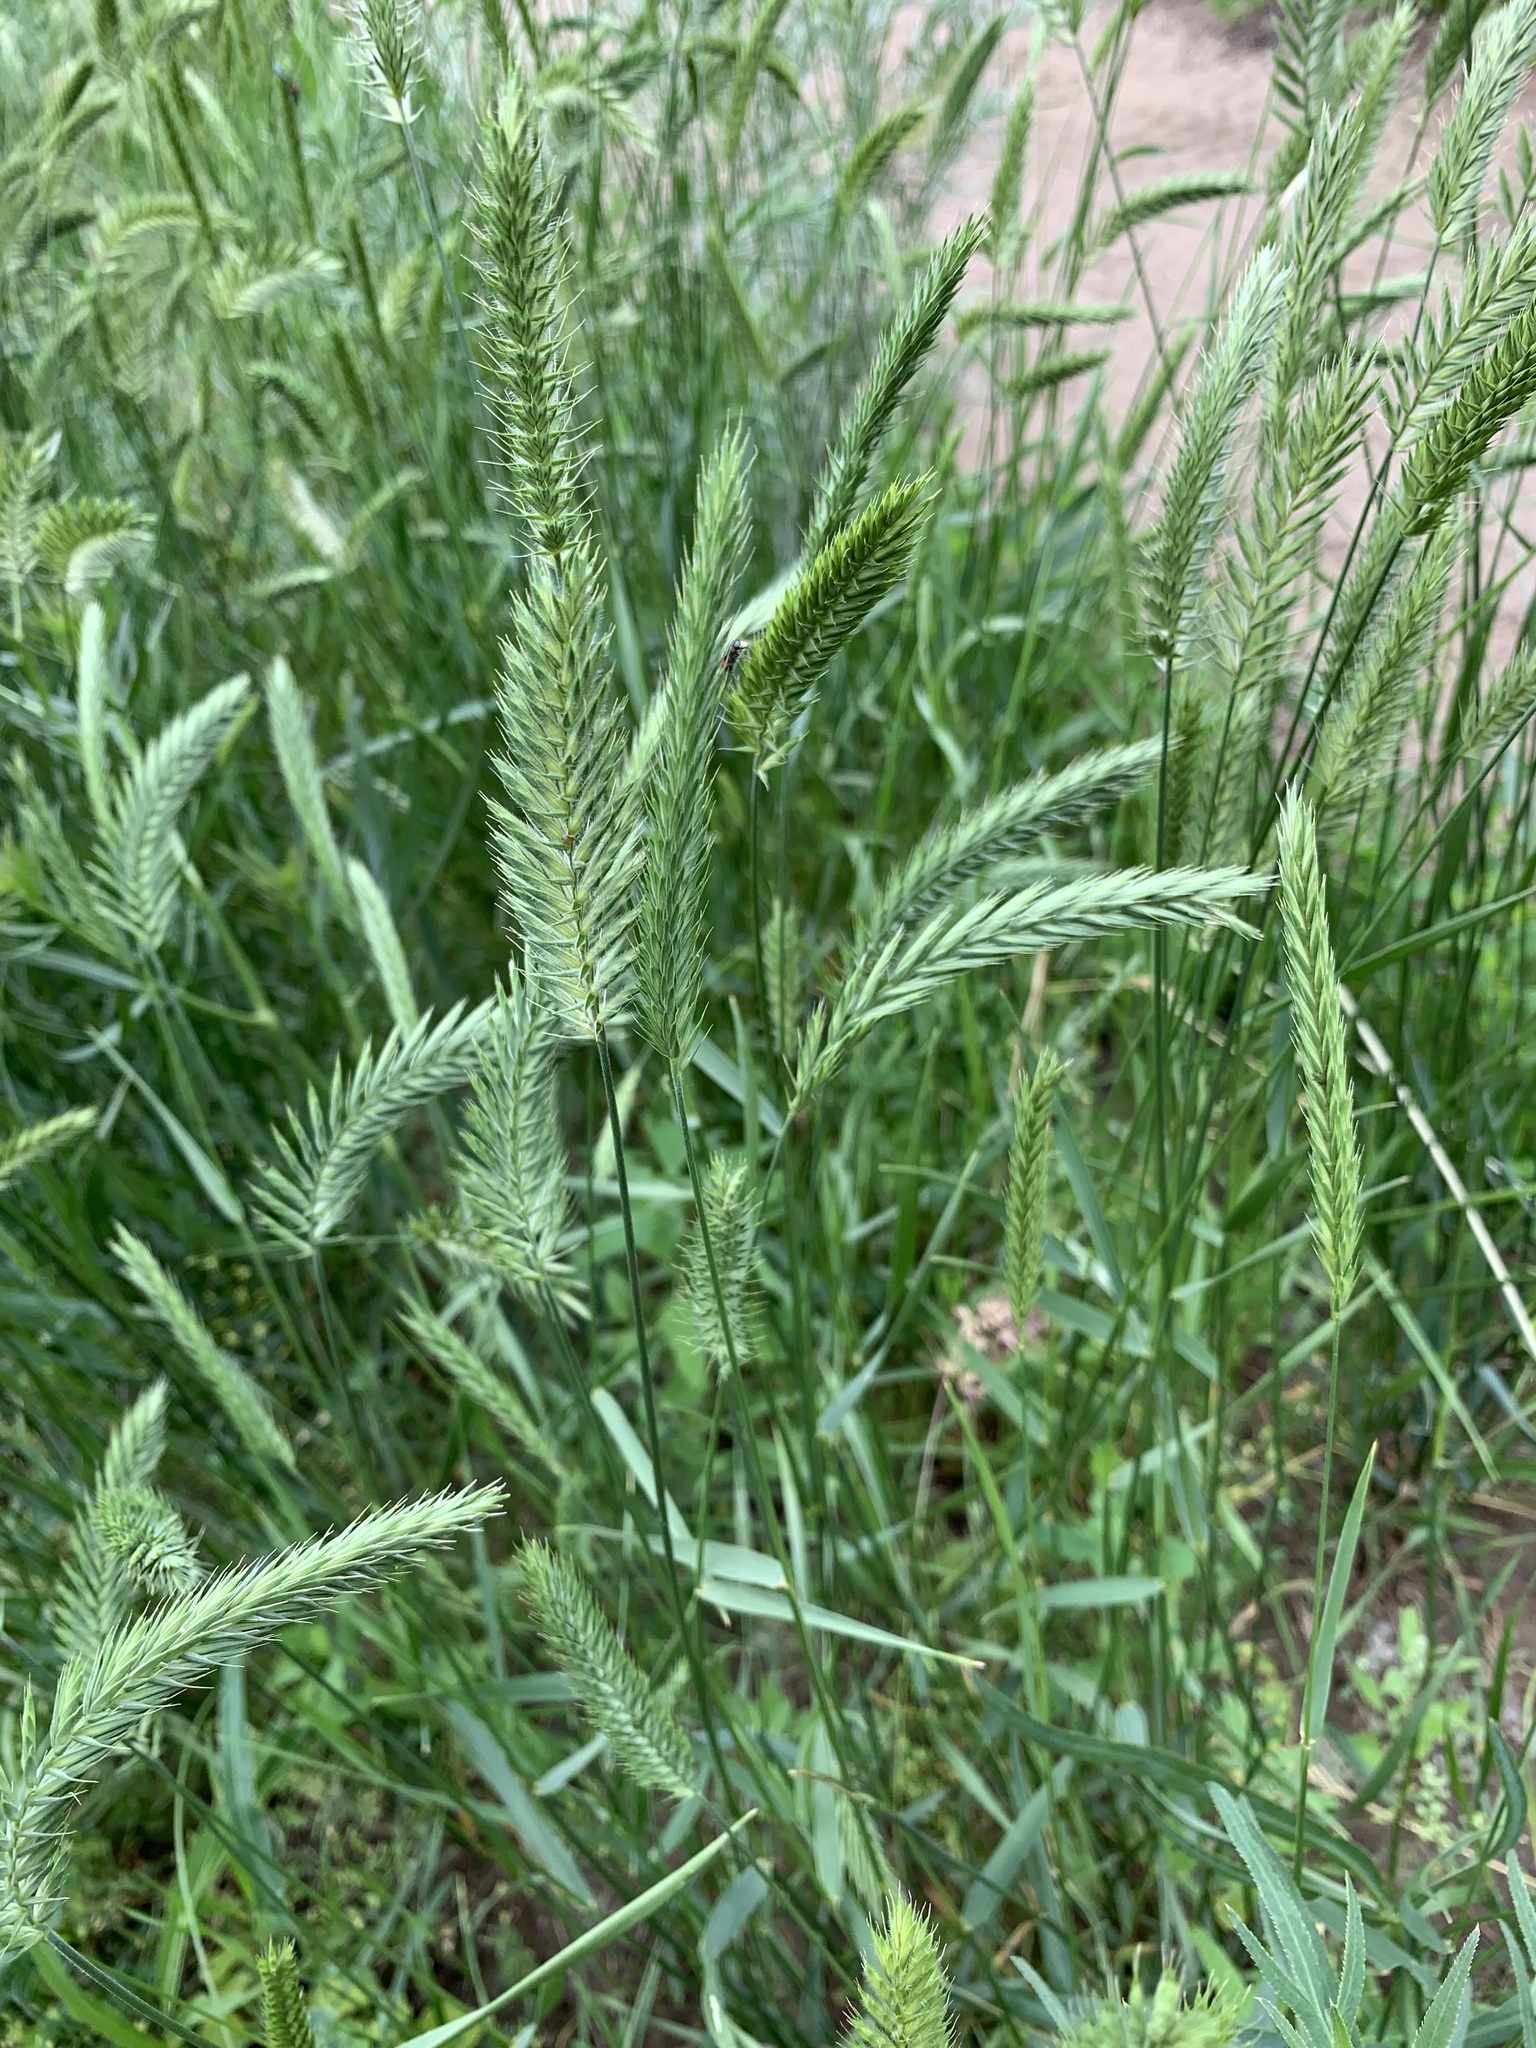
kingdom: Plantae
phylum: Tracheophyta
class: Liliopsida
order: Poales
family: Poaceae
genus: Agropyron
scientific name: Agropyron cristatum
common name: Crested wheatgrass
